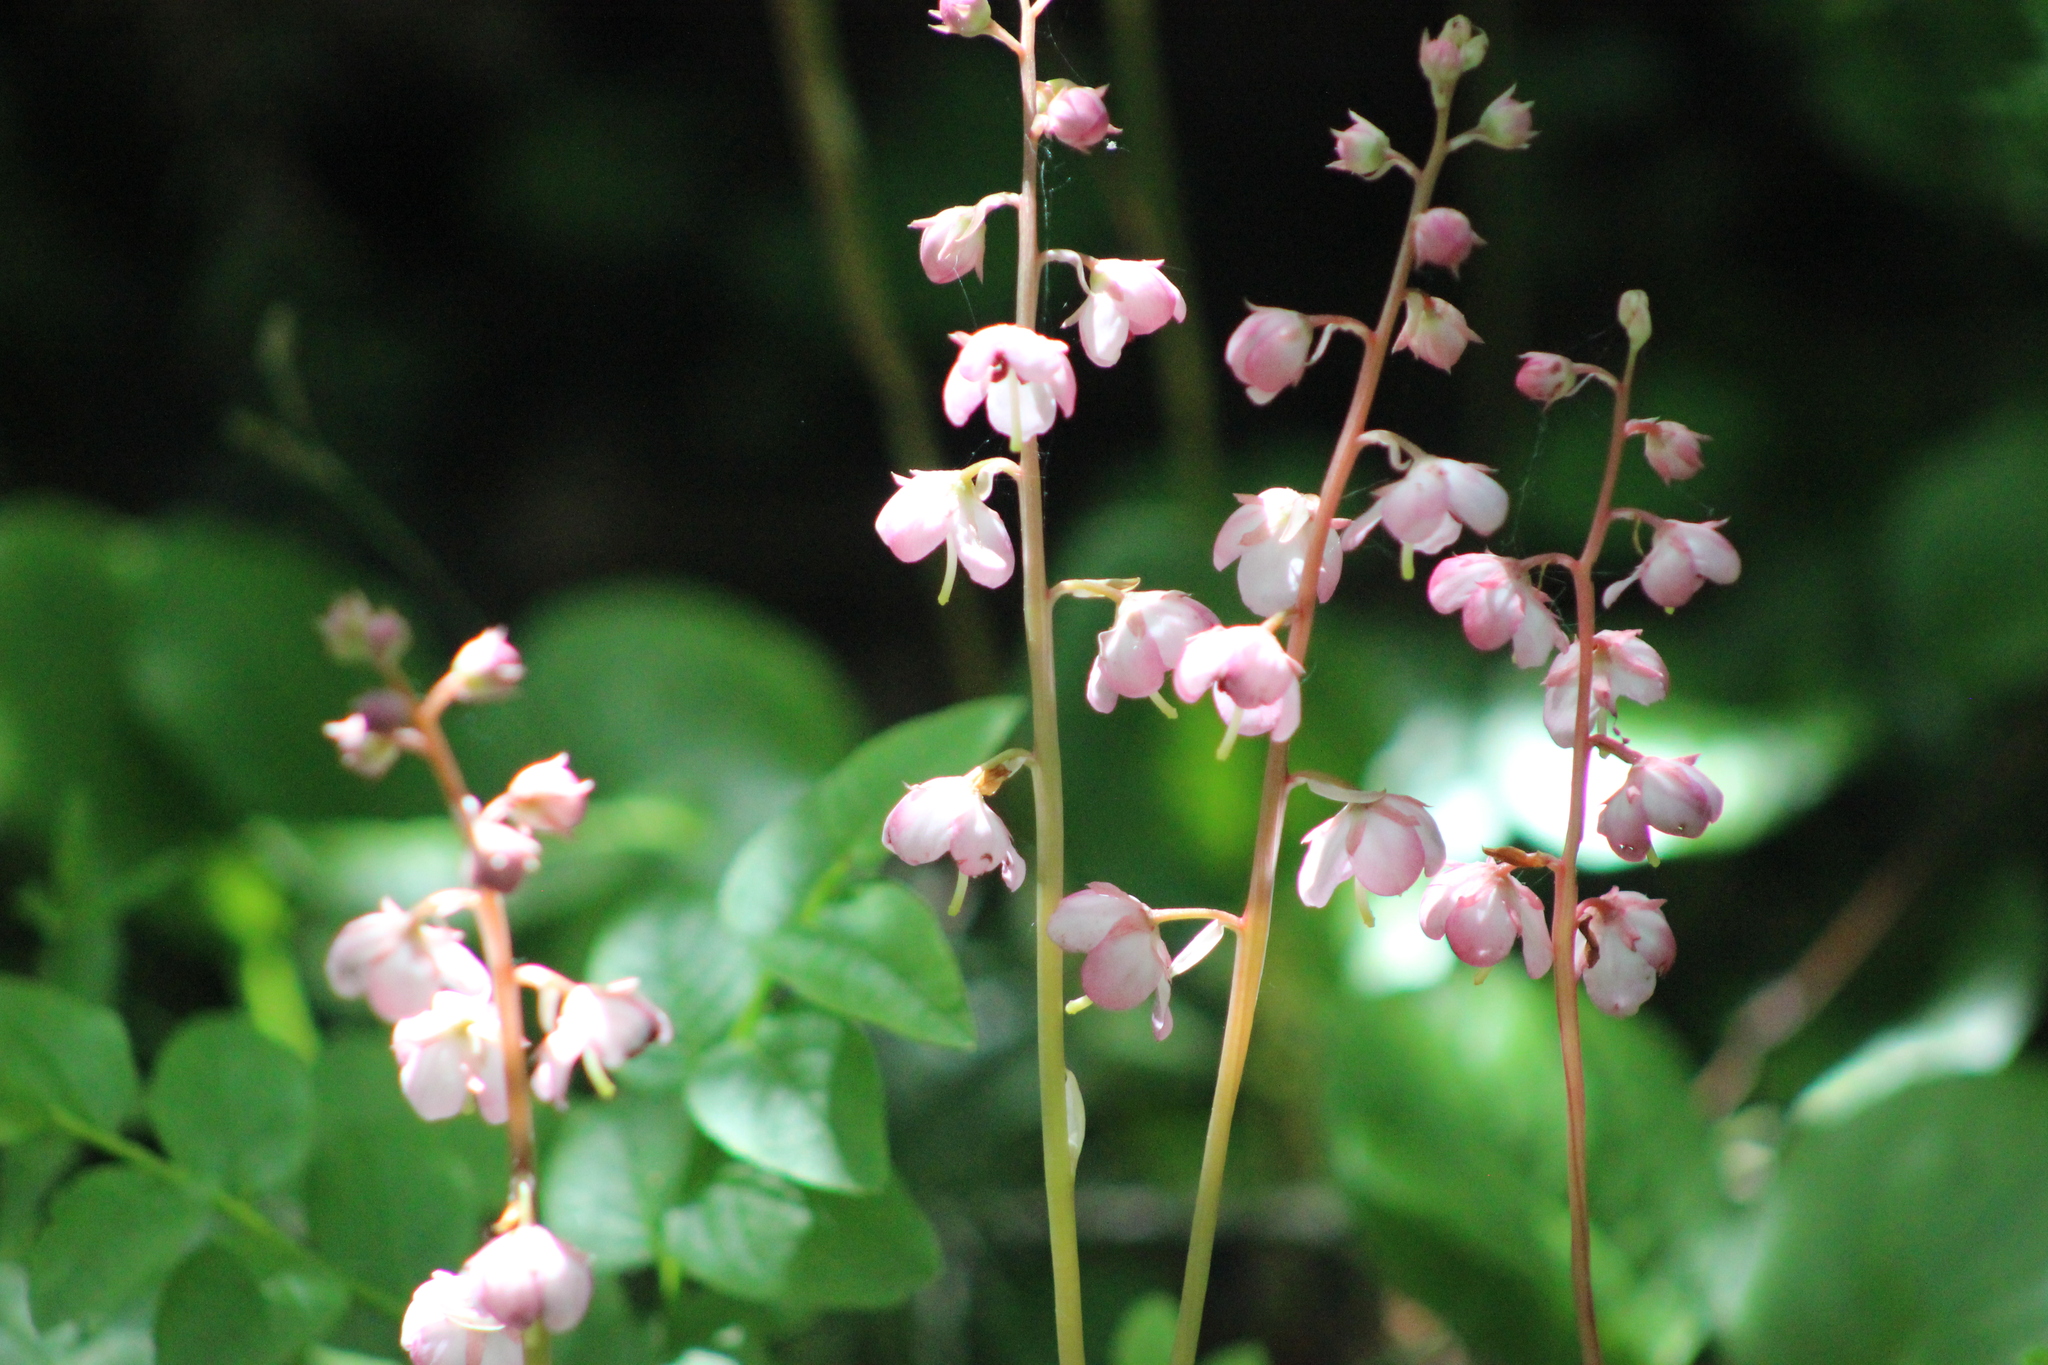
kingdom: Plantae
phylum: Tracheophyta
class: Magnoliopsida
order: Ericales
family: Ericaceae
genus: Pyrola
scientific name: Pyrola asarifolia
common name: Bog wintergreen
